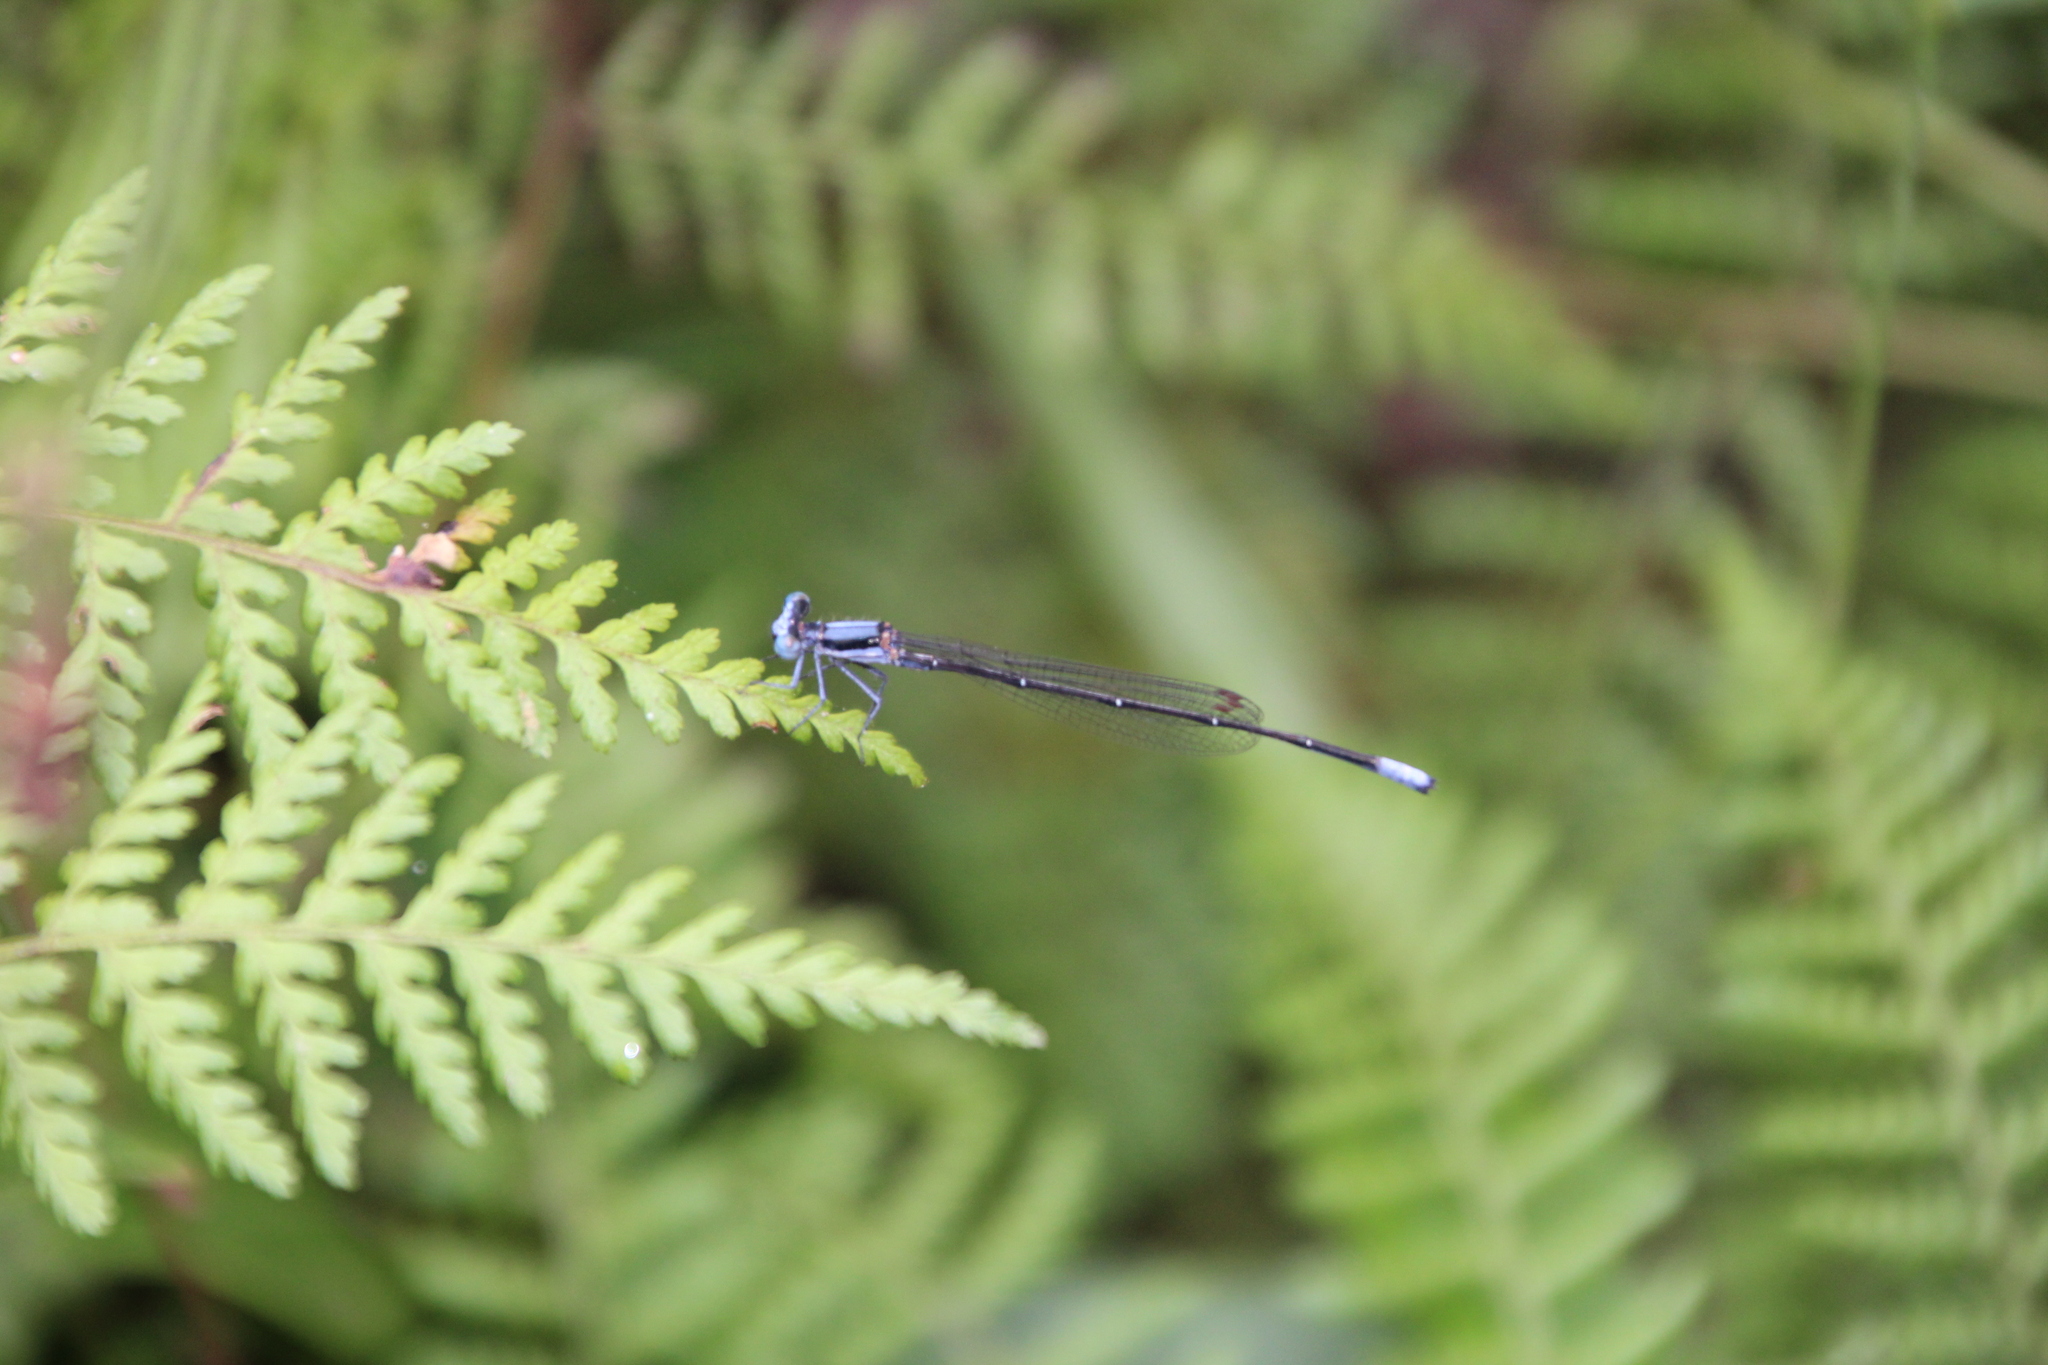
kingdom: Animalia
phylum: Arthropoda
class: Insecta
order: Odonata
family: Platycnemididae
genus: Elattoneura
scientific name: Elattoneura glauca
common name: Common threadtail
